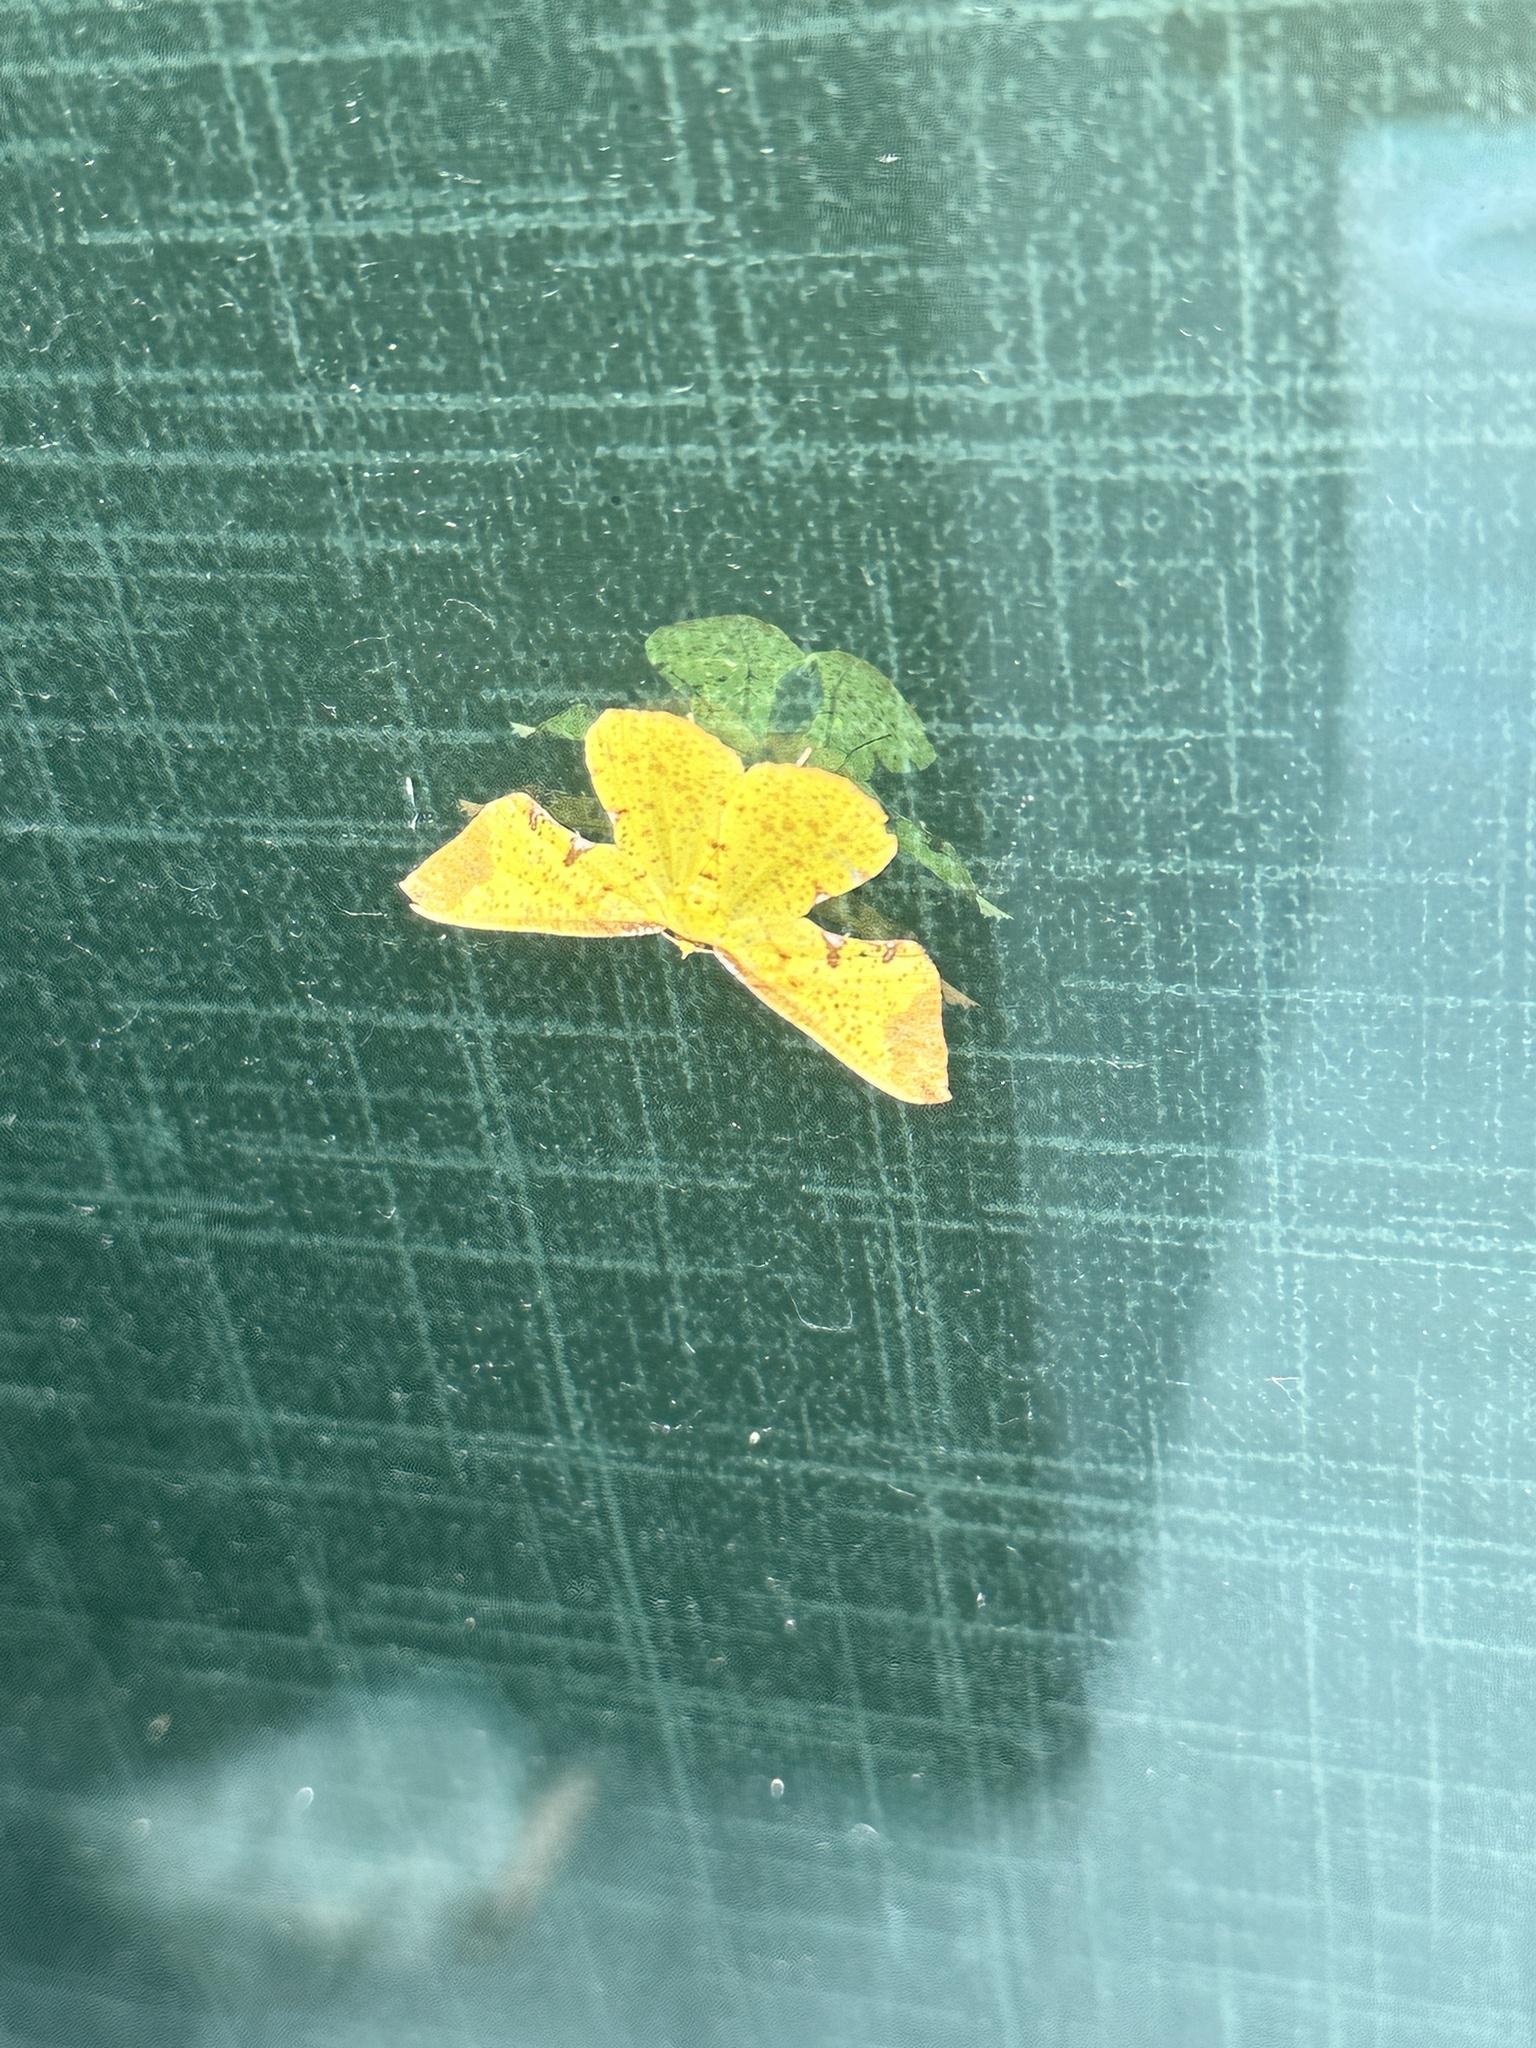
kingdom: Animalia
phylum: Arthropoda
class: Insecta
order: Lepidoptera
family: Geometridae
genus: Corymica
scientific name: Corymica pryeri
